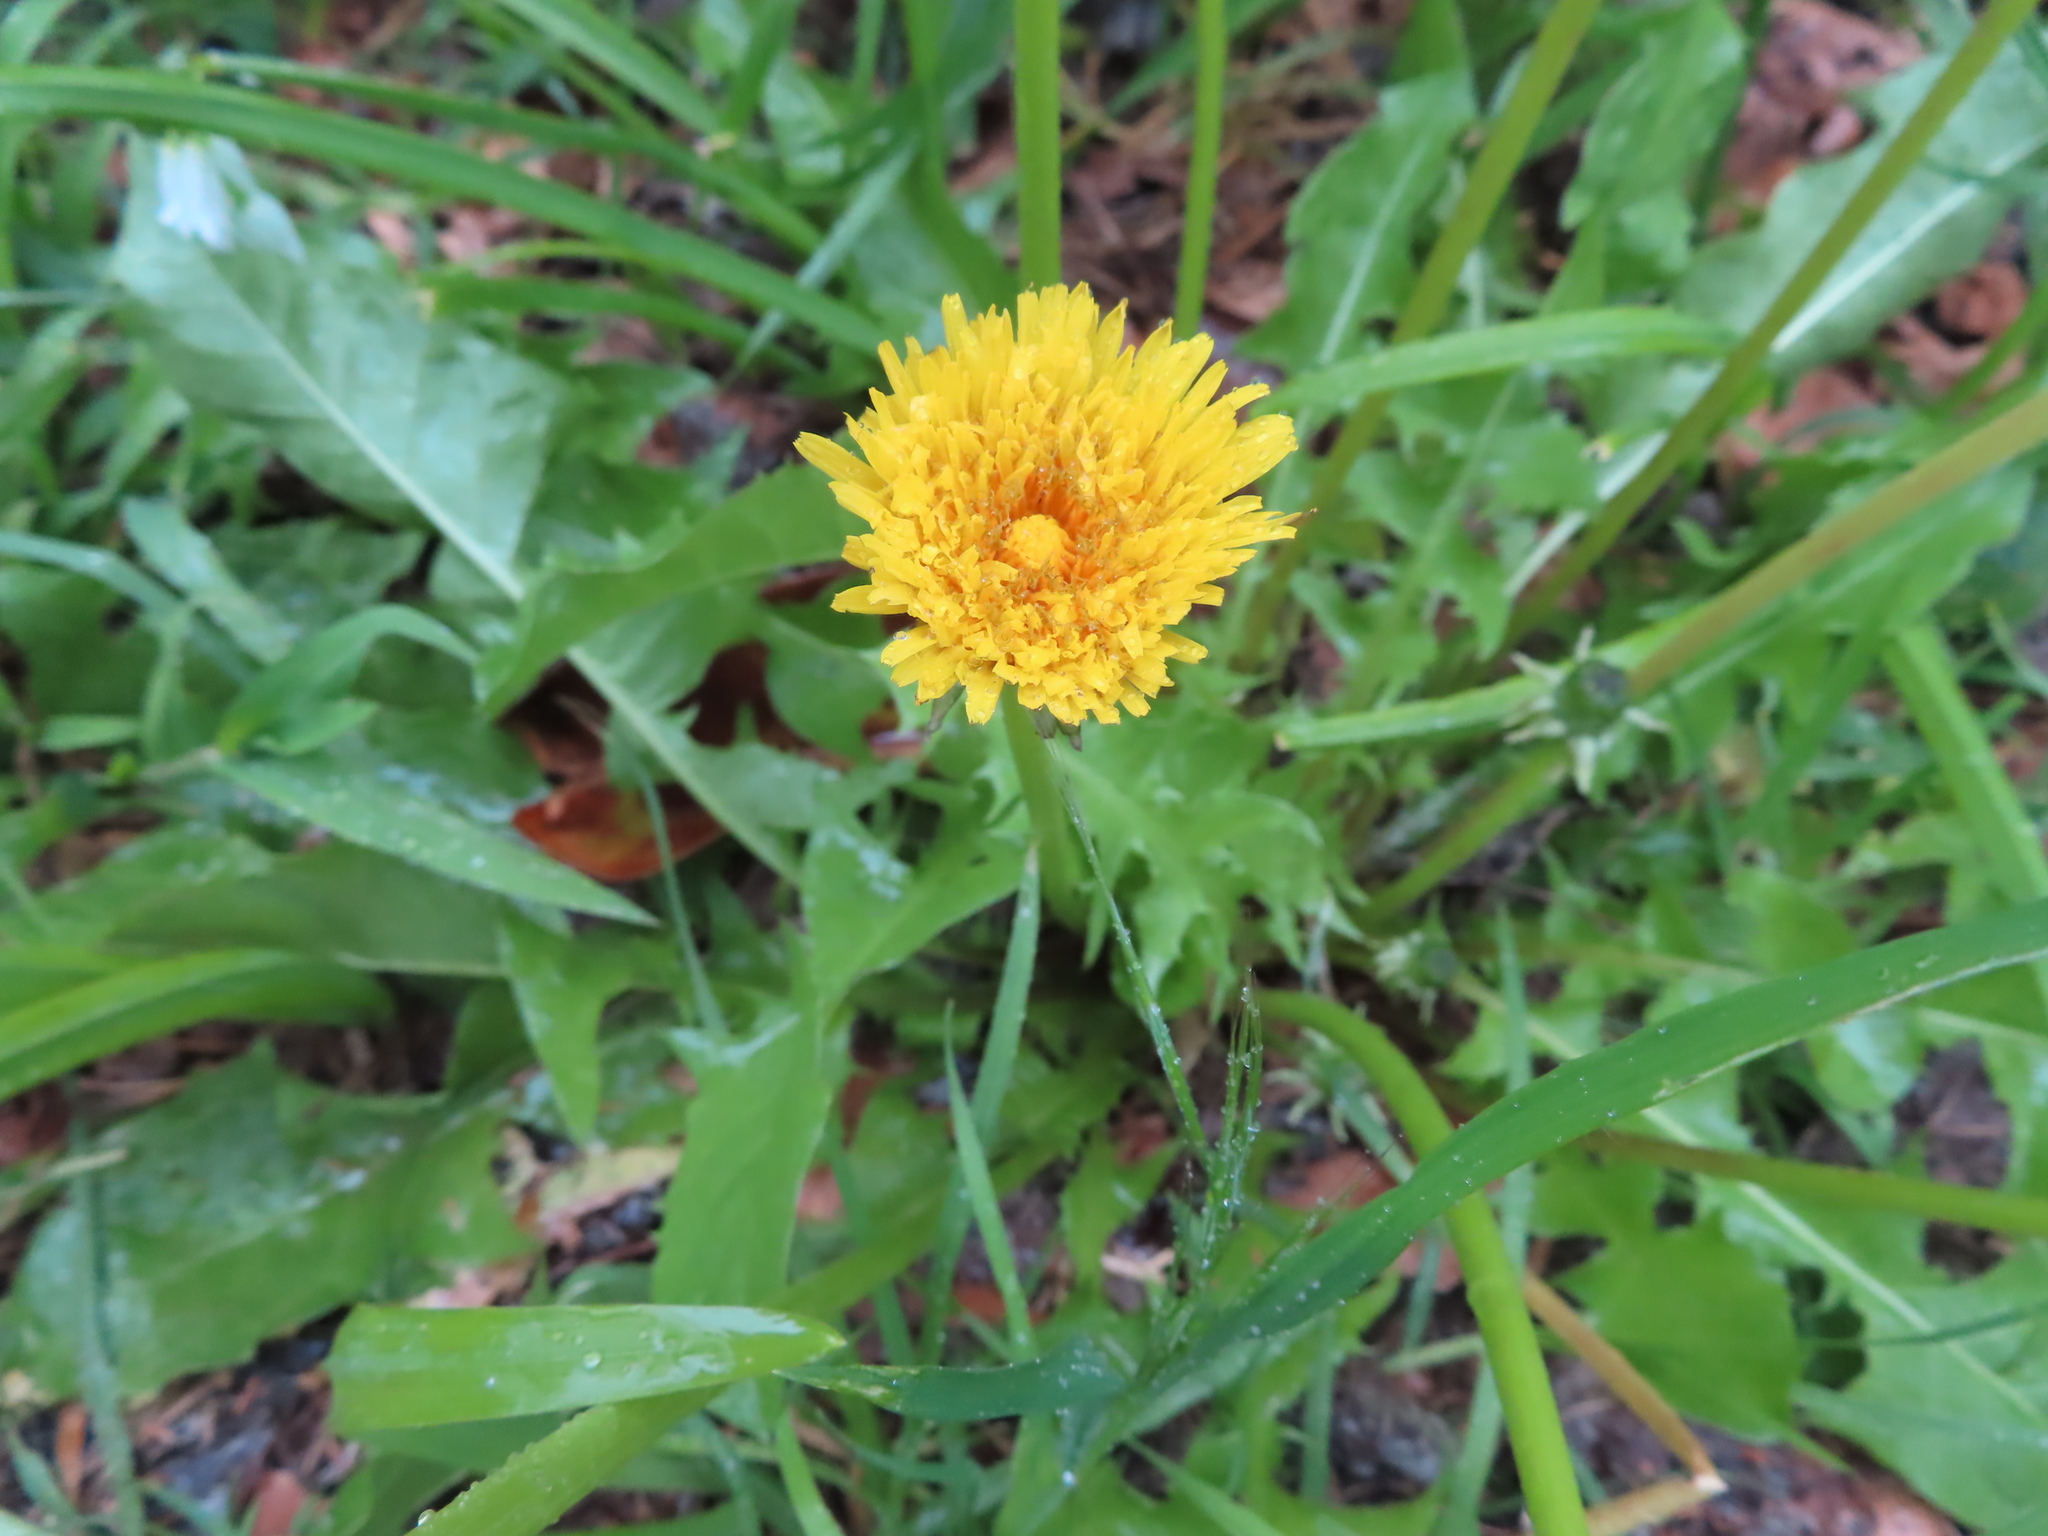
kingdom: Plantae
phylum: Tracheophyta
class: Magnoliopsida
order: Asterales
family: Asteraceae
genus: Taraxacum
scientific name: Taraxacum officinale
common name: Common dandelion
